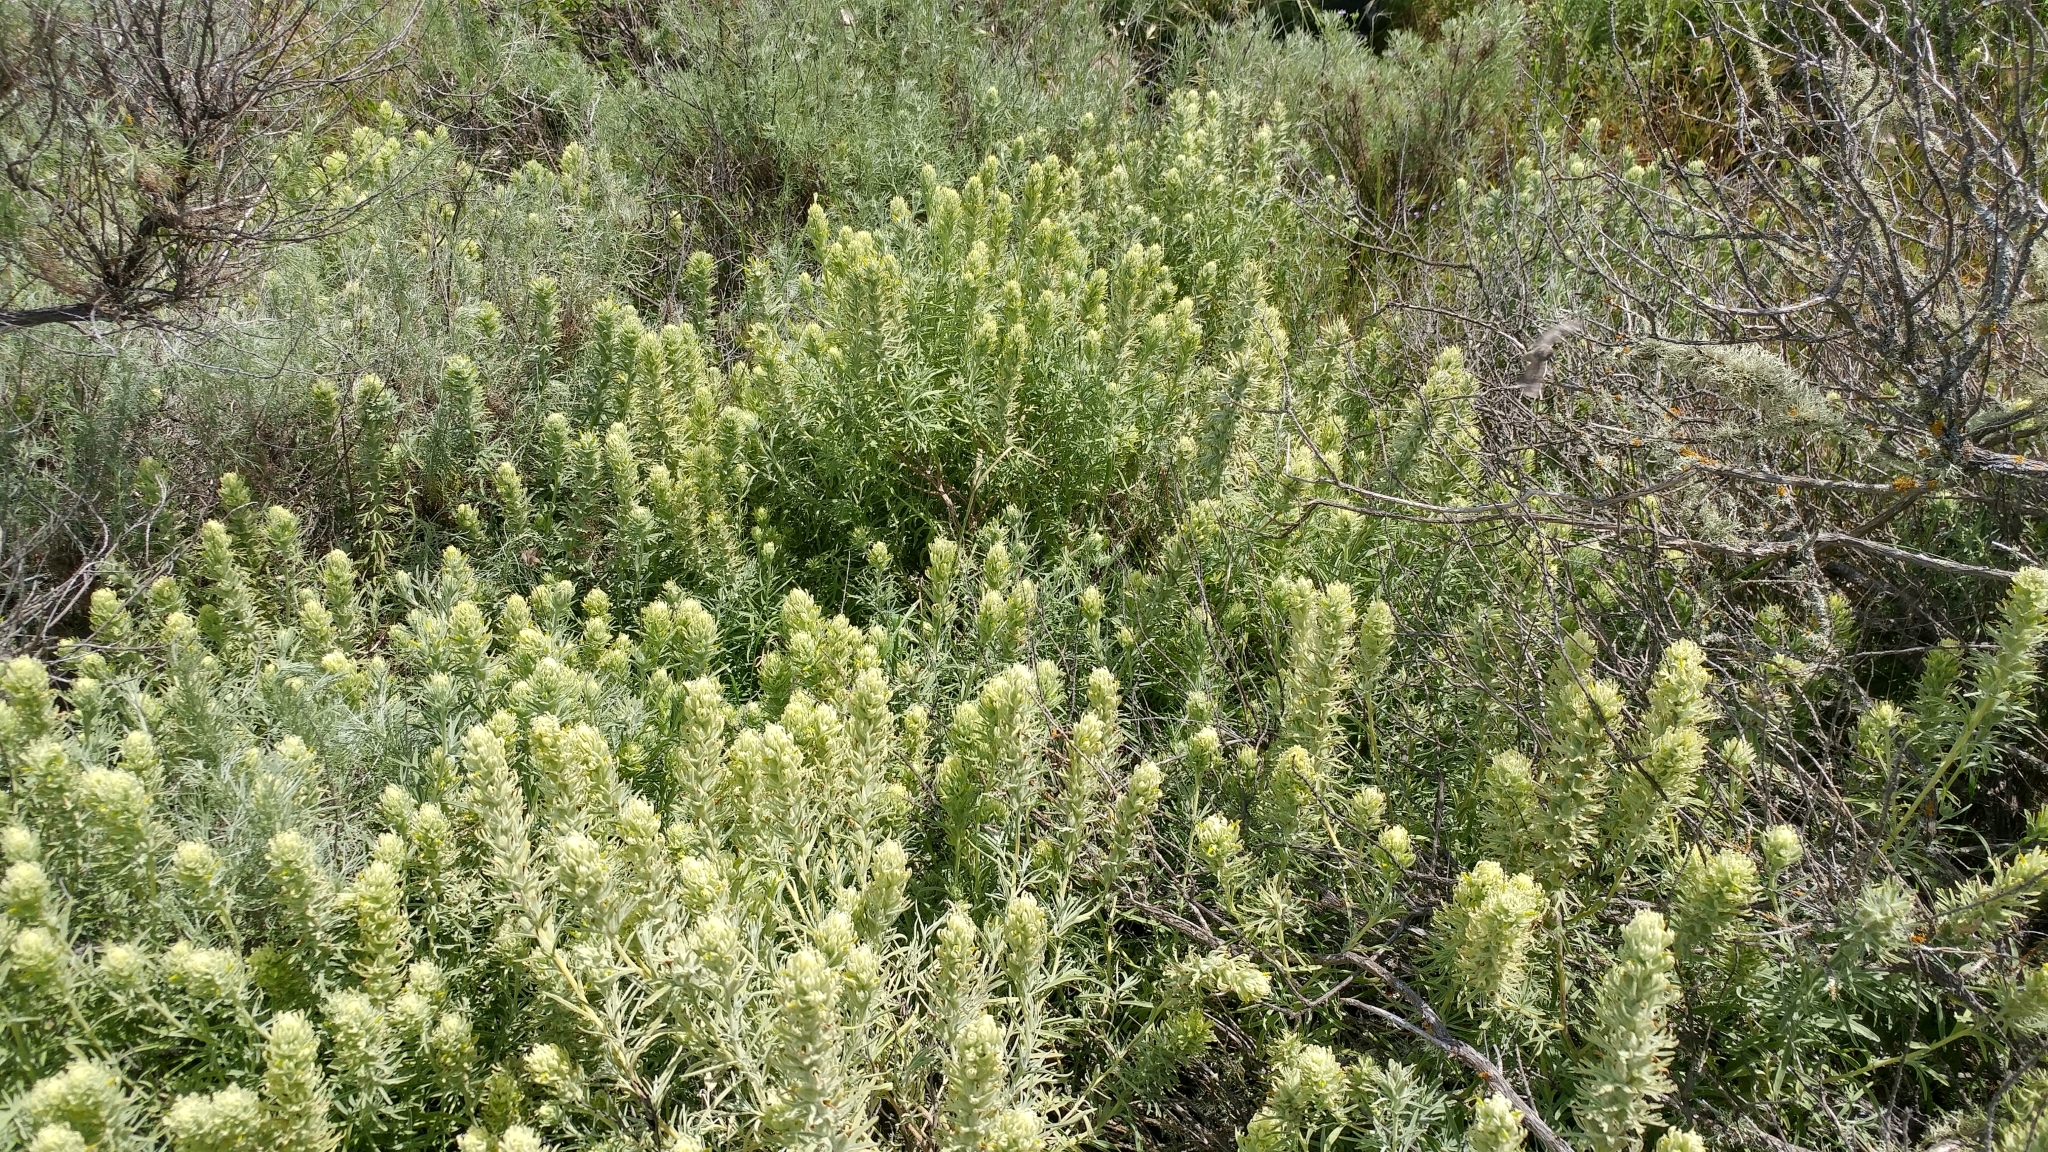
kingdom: Plantae
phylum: Tracheophyta
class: Magnoliopsida
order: Lamiales
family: Orobanchaceae
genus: Castilleja
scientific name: Castilleja grisea
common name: San clemente island indian paintbrush
